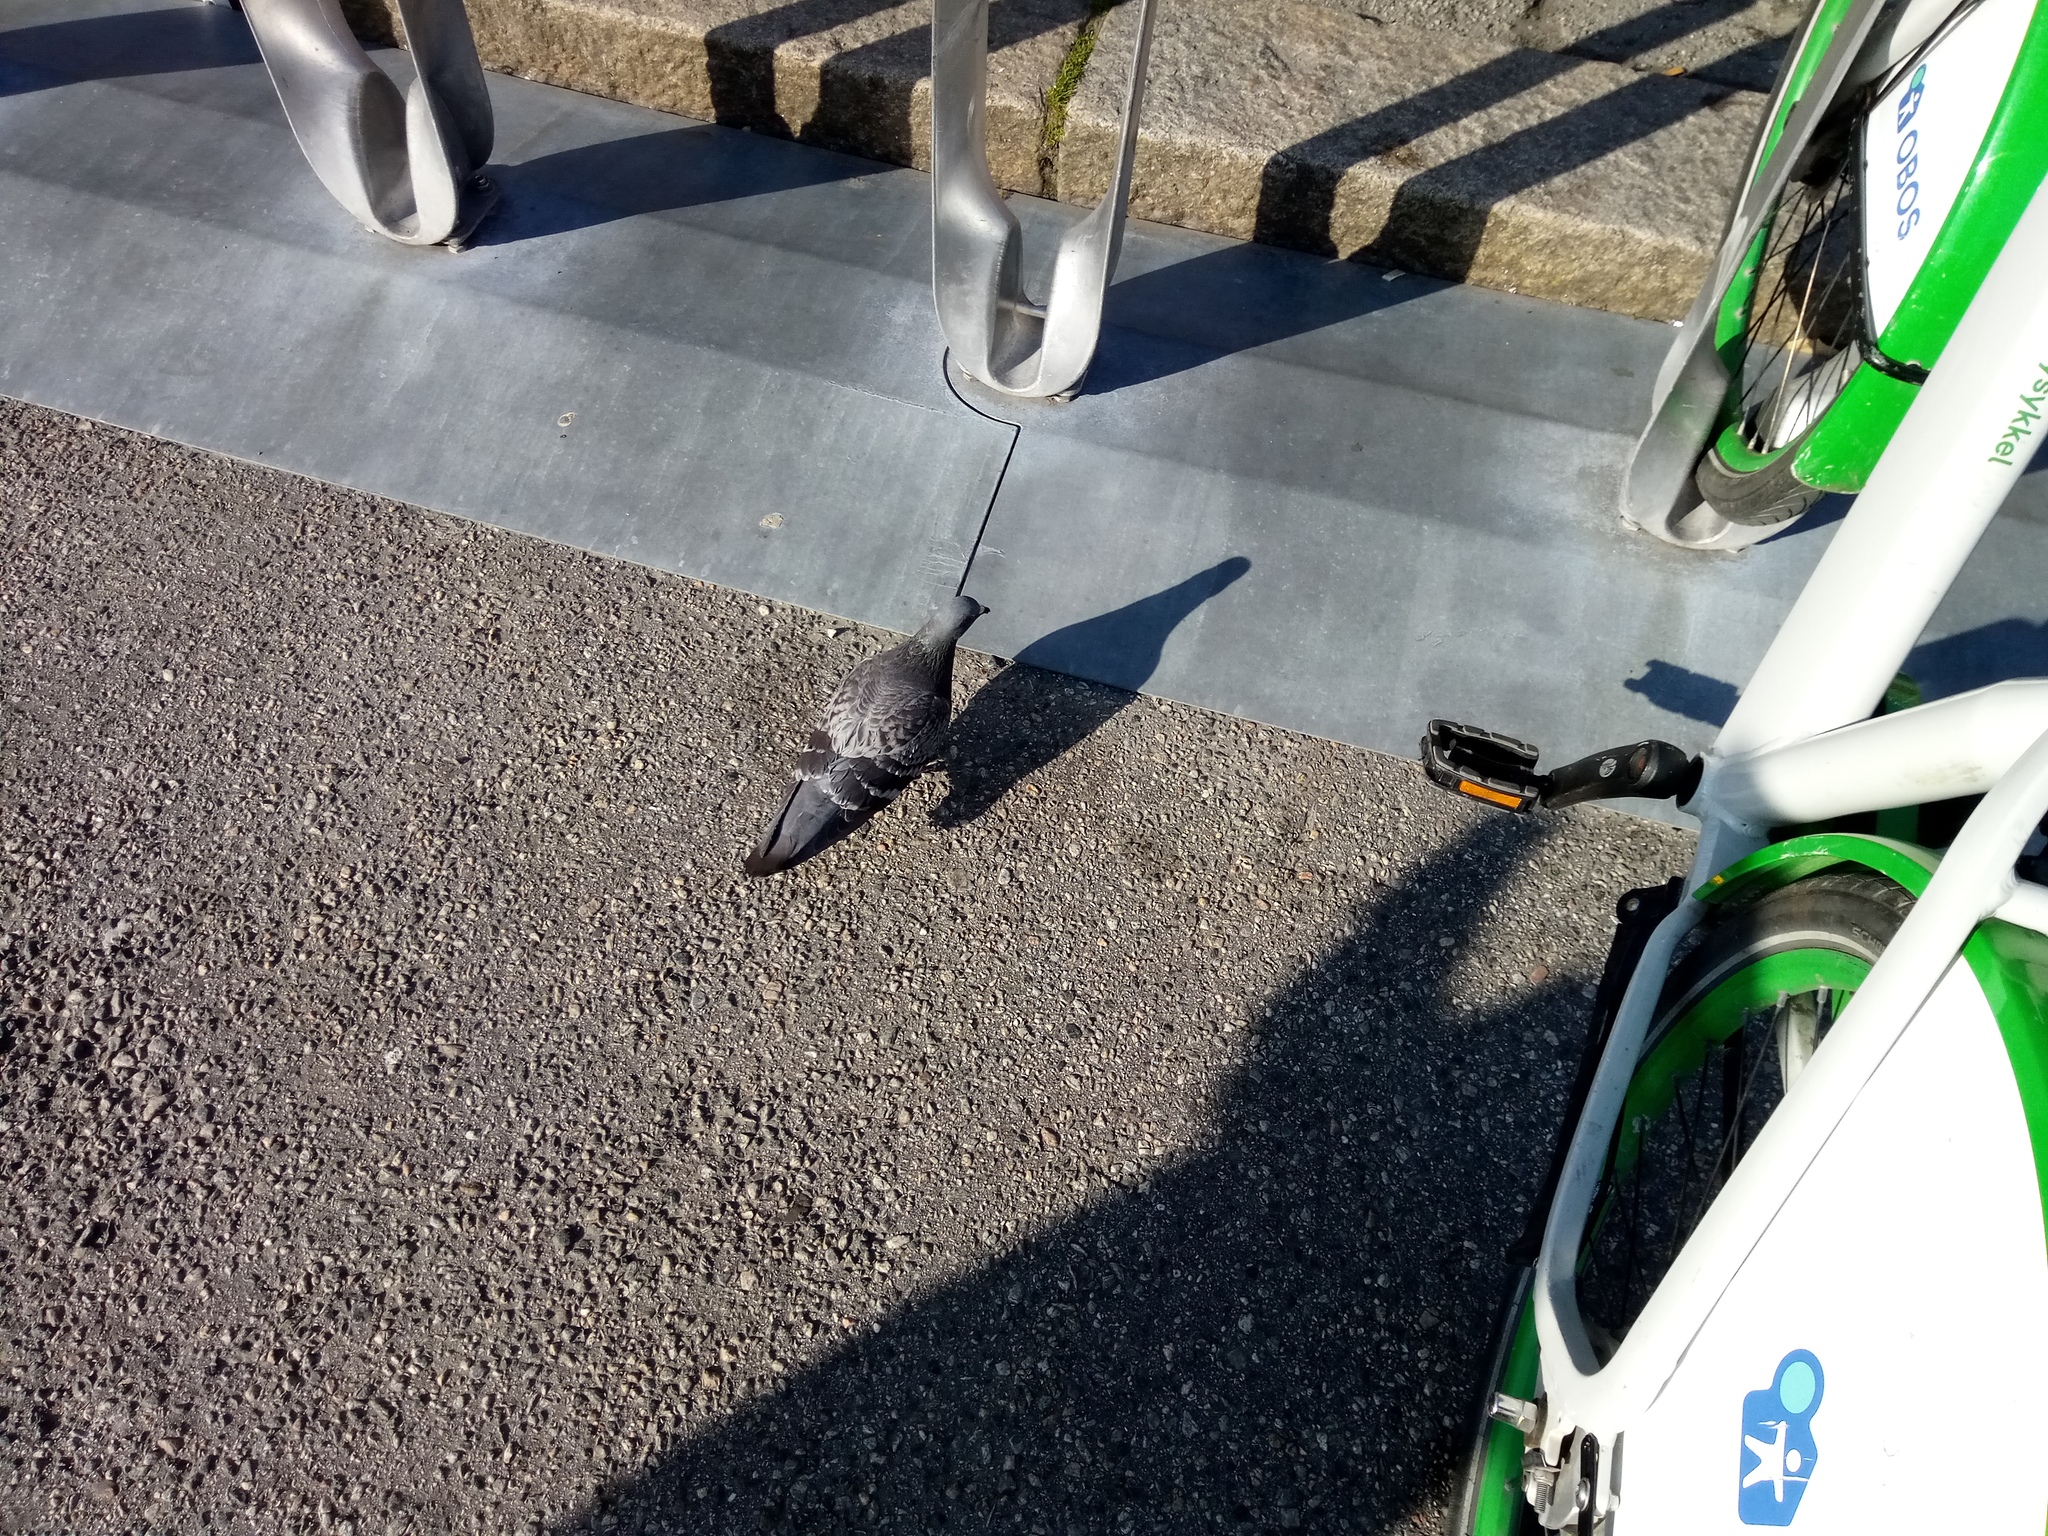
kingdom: Animalia
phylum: Chordata
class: Aves
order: Columbiformes
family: Columbidae
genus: Columba
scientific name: Columba livia
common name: Rock pigeon
